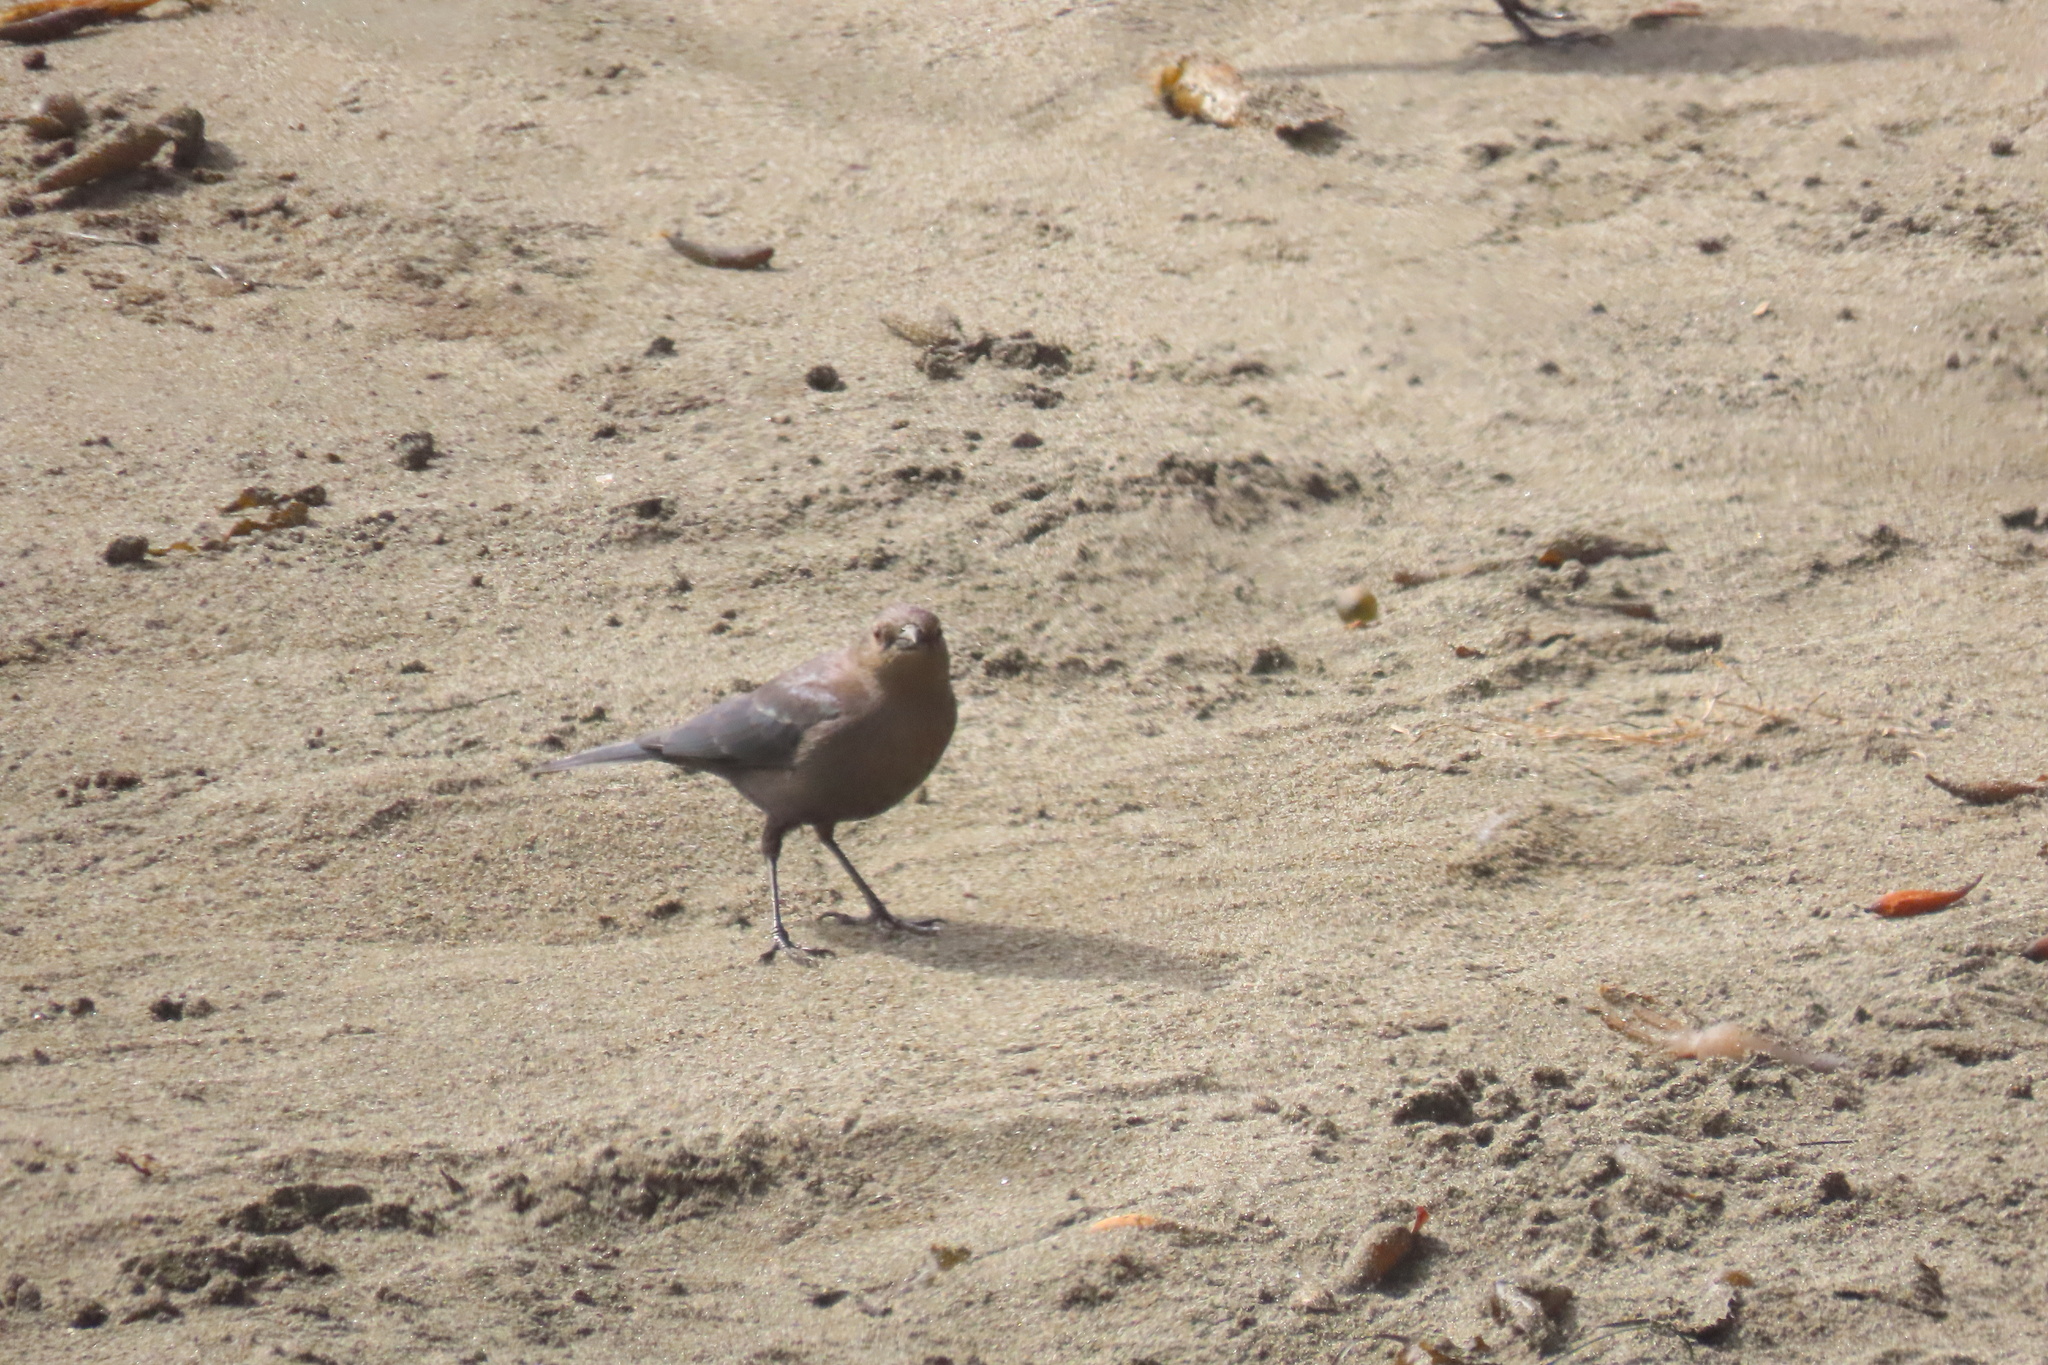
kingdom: Animalia
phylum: Chordata
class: Aves
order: Passeriformes
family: Icteridae
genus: Euphagus
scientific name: Euphagus cyanocephalus
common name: Brewer's blackbird
